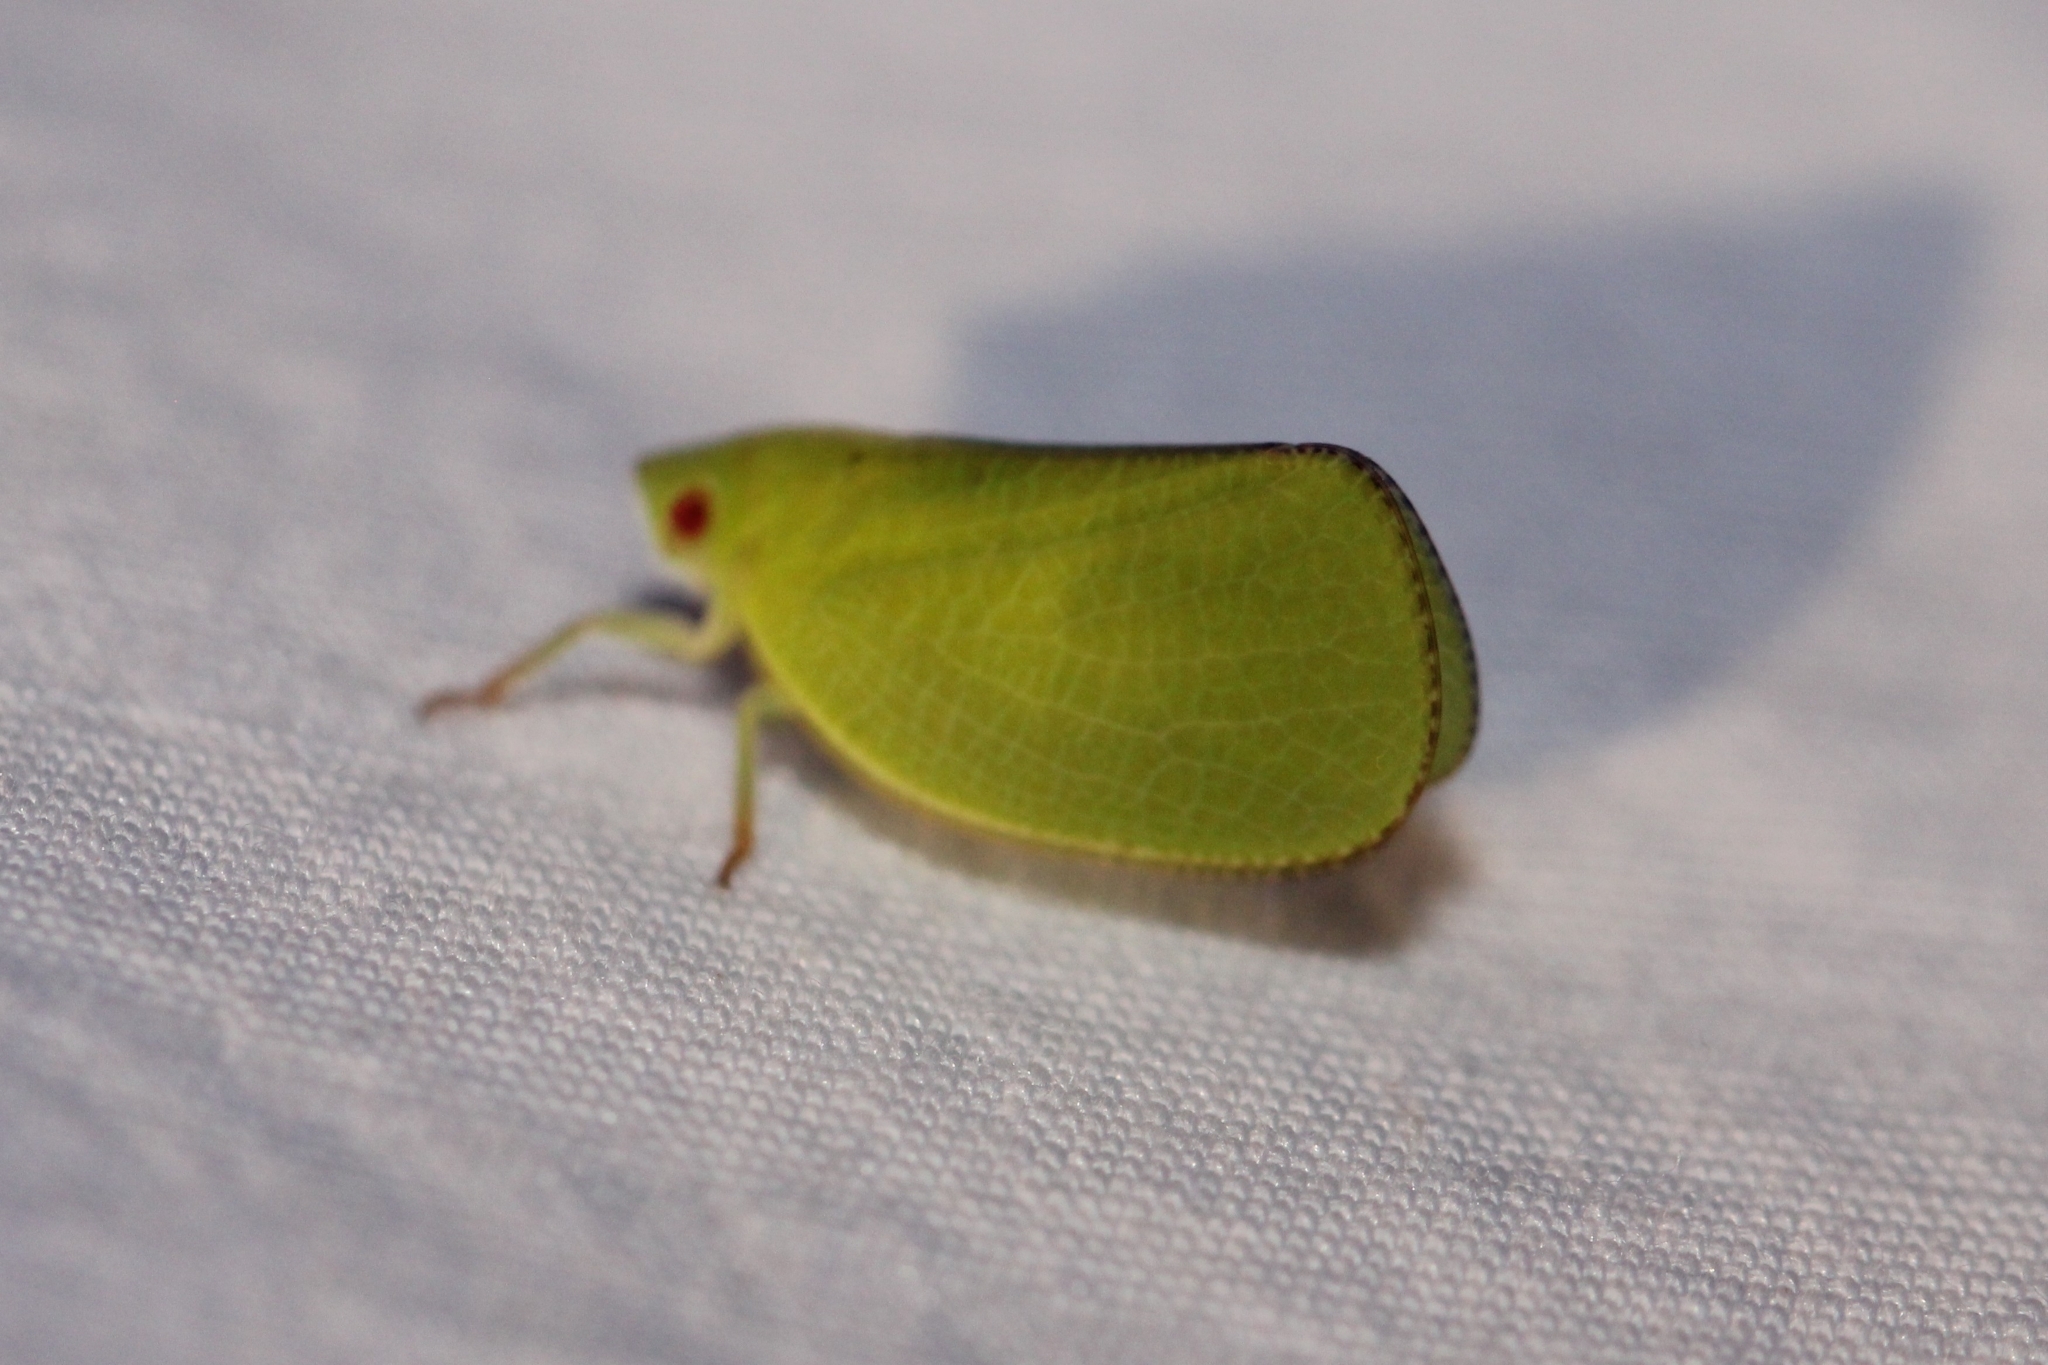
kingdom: Animalia
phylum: Arthropoda
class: Insecta
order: Hemiptera
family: Acanaloniidae
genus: Acanalonia
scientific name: Acanalonia conica
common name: Green cone-headed planthopper
